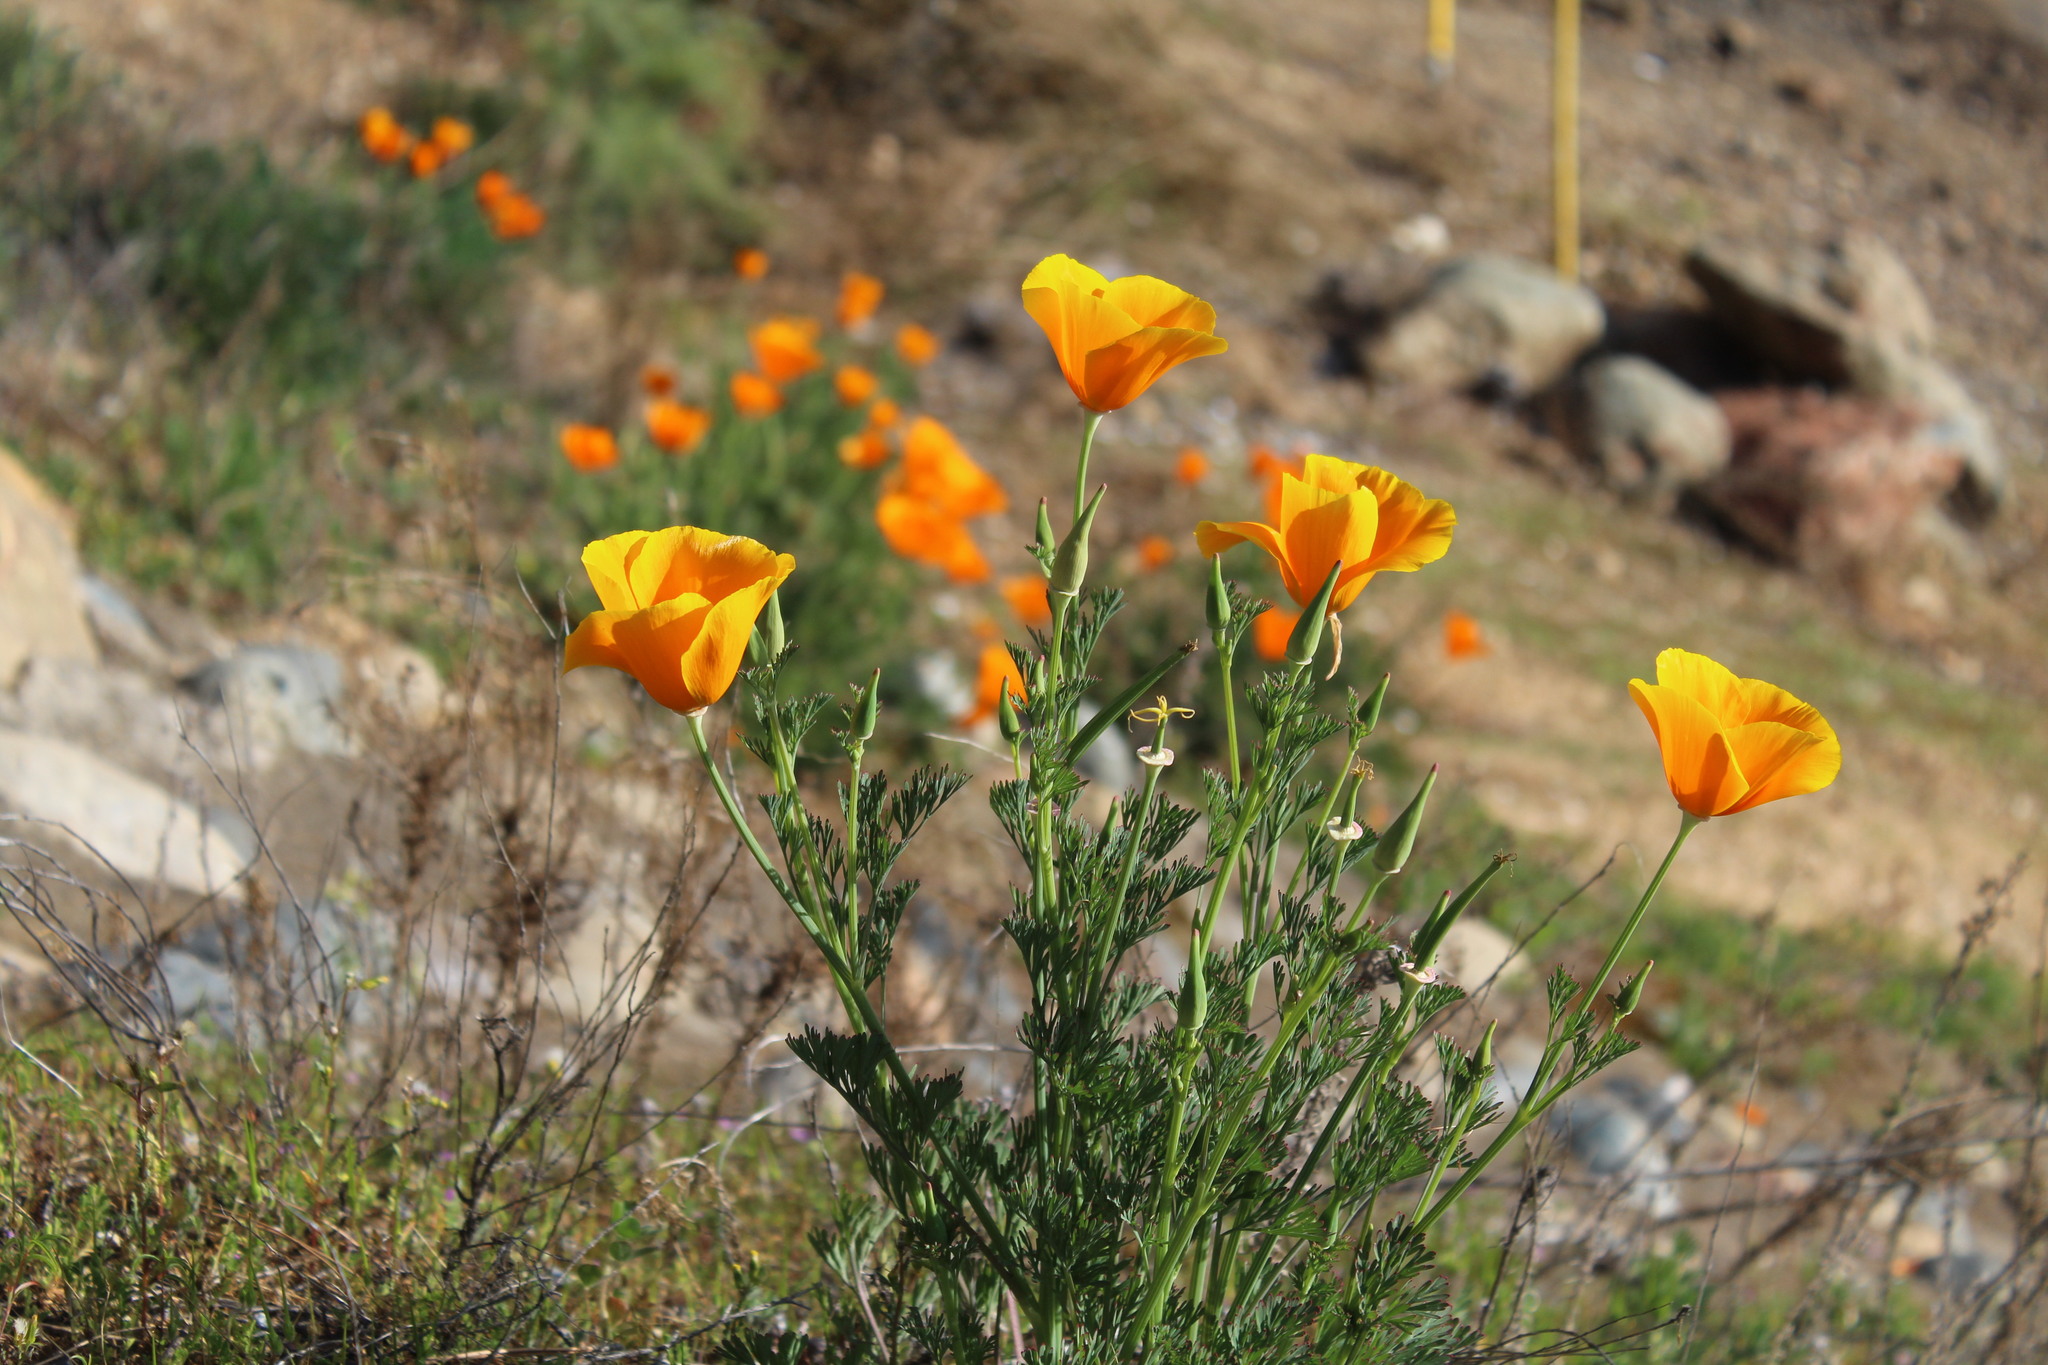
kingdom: Plantae
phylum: Tracheophyta
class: Magnoliopsida
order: Ranunculales
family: Papaveraceae
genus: Eschscholzia
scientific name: Eschscholzia californica
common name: California poppy
